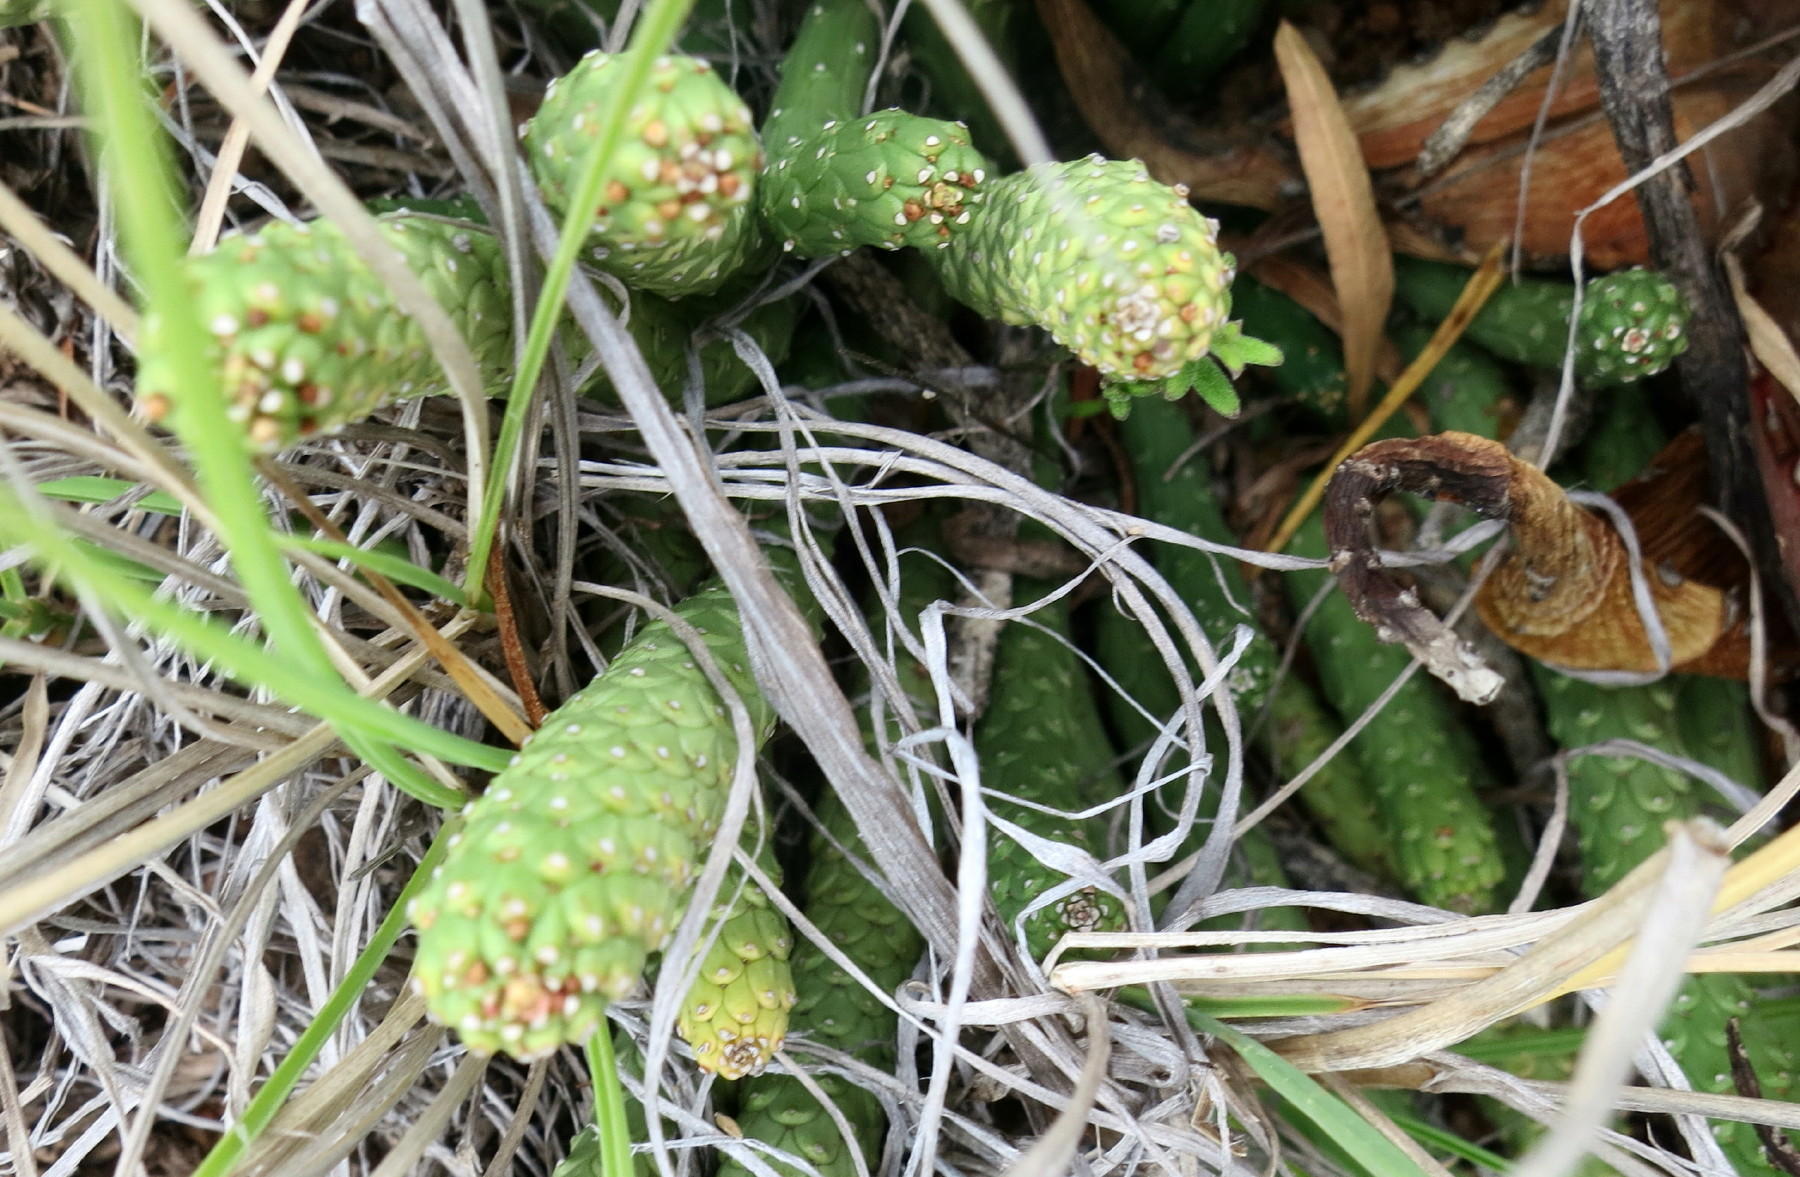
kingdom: Plantae
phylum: Tracheophyta
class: Magnoliopsida
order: Malpighiales
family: Euphorbiaceae
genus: Euphorbia
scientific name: Euphorbia colliculina
